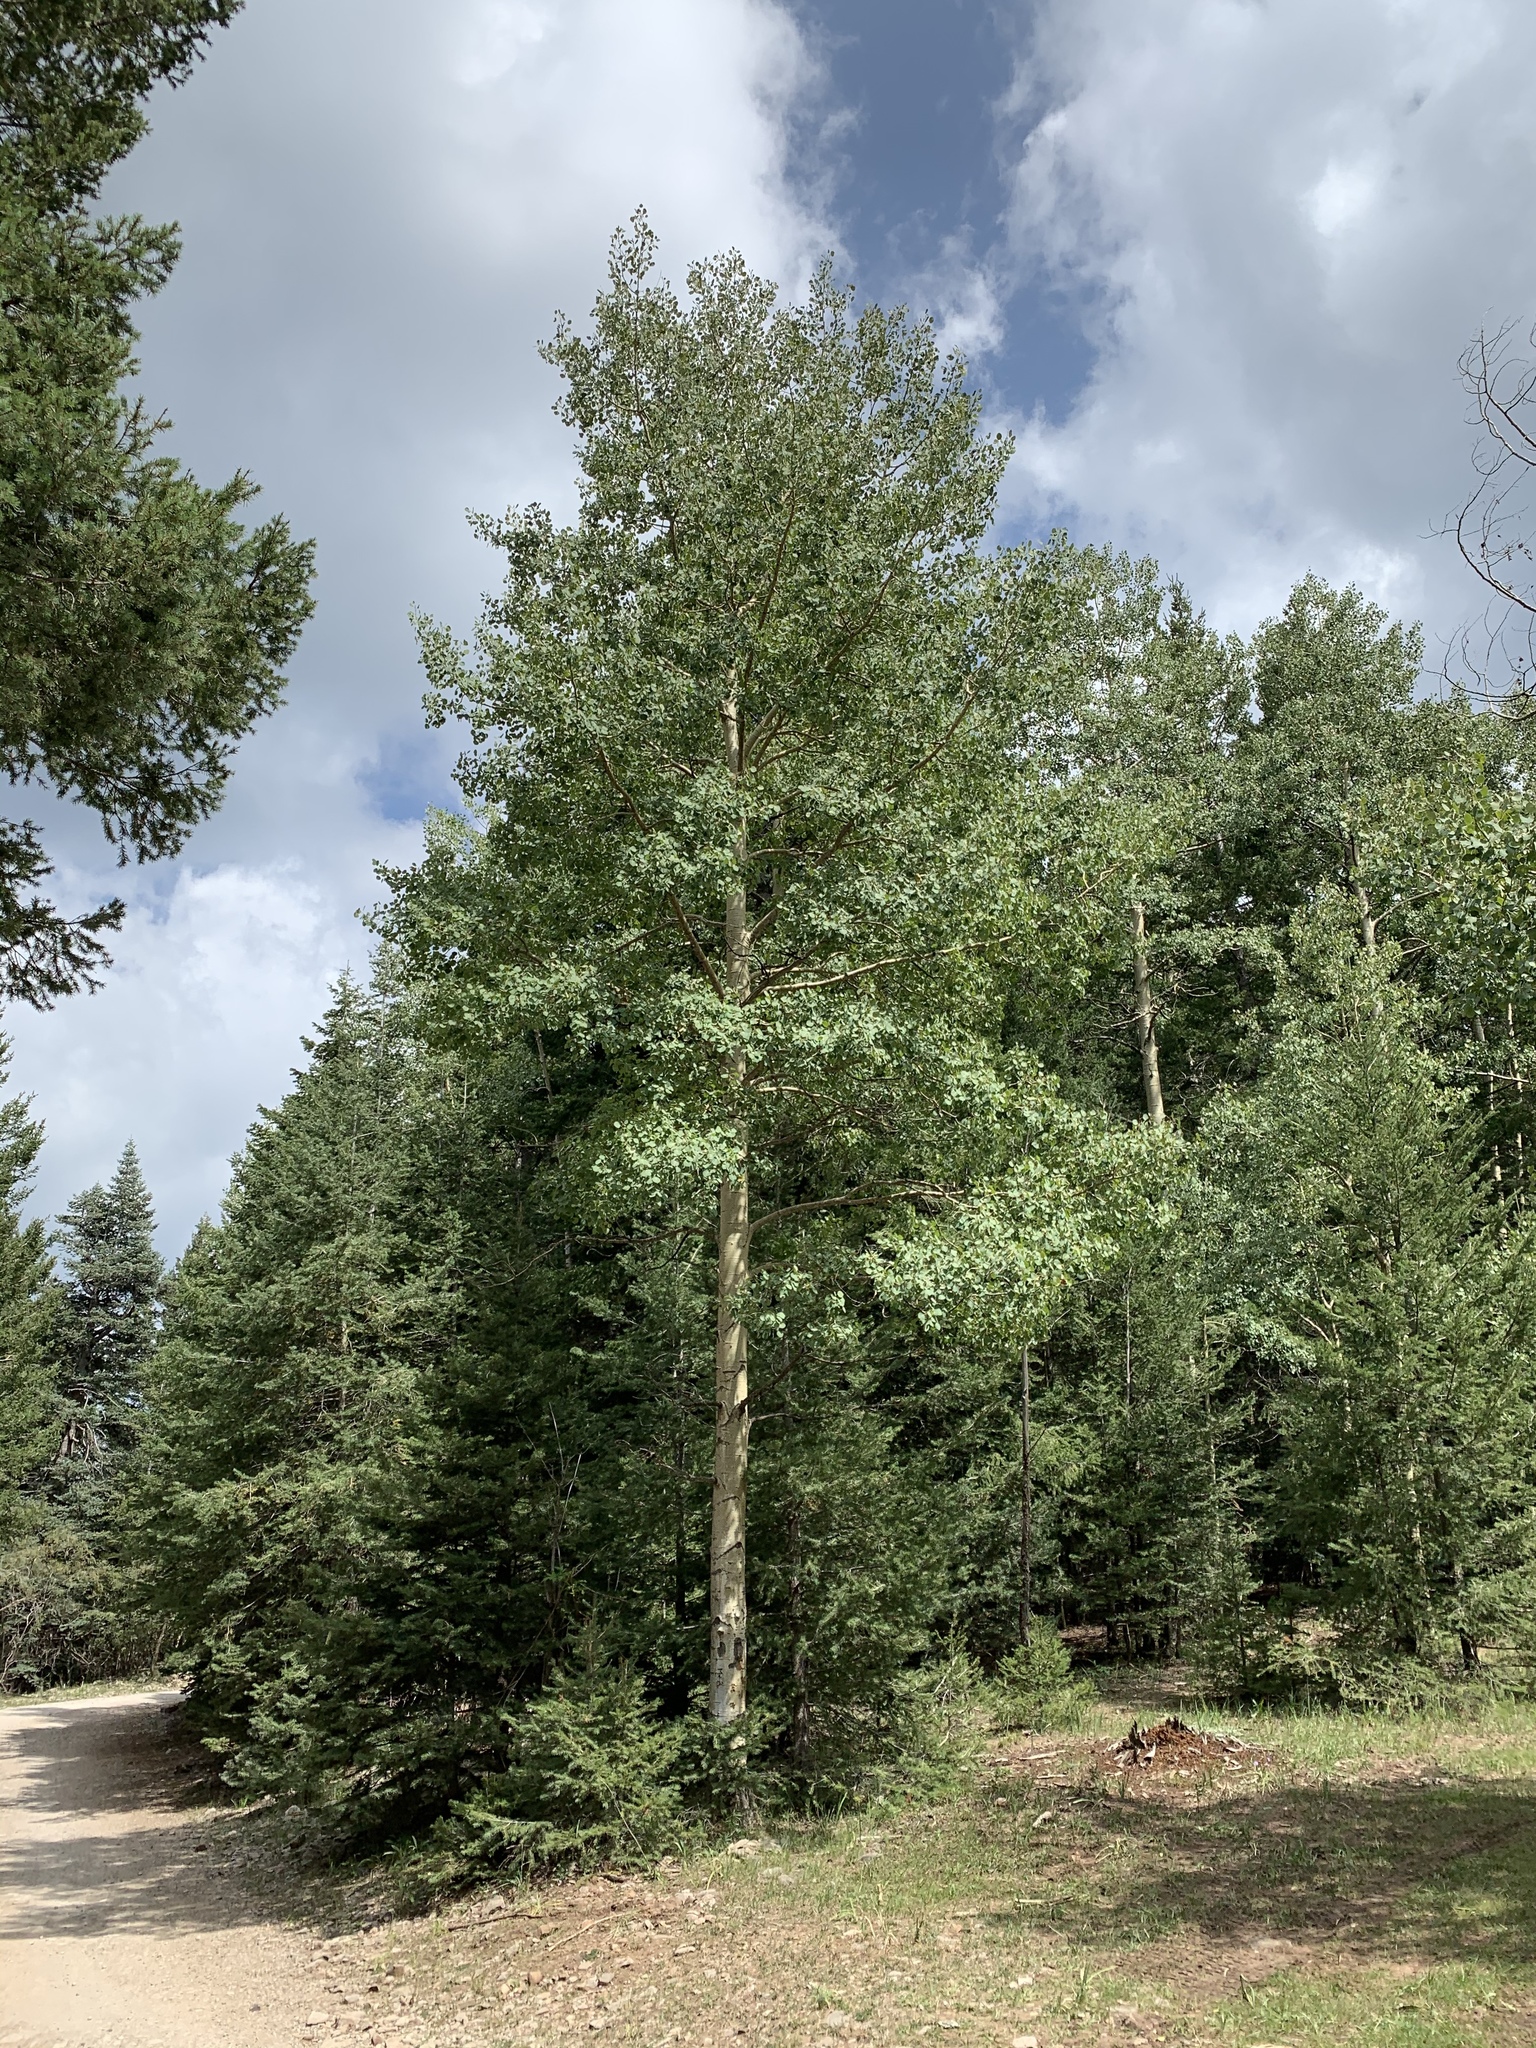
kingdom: Plantae
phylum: Tracheophyta
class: Magnoliopsida
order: Malpighiales
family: Salicaceae
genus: Populus
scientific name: Populus tremuloides
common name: Quaking aspen
